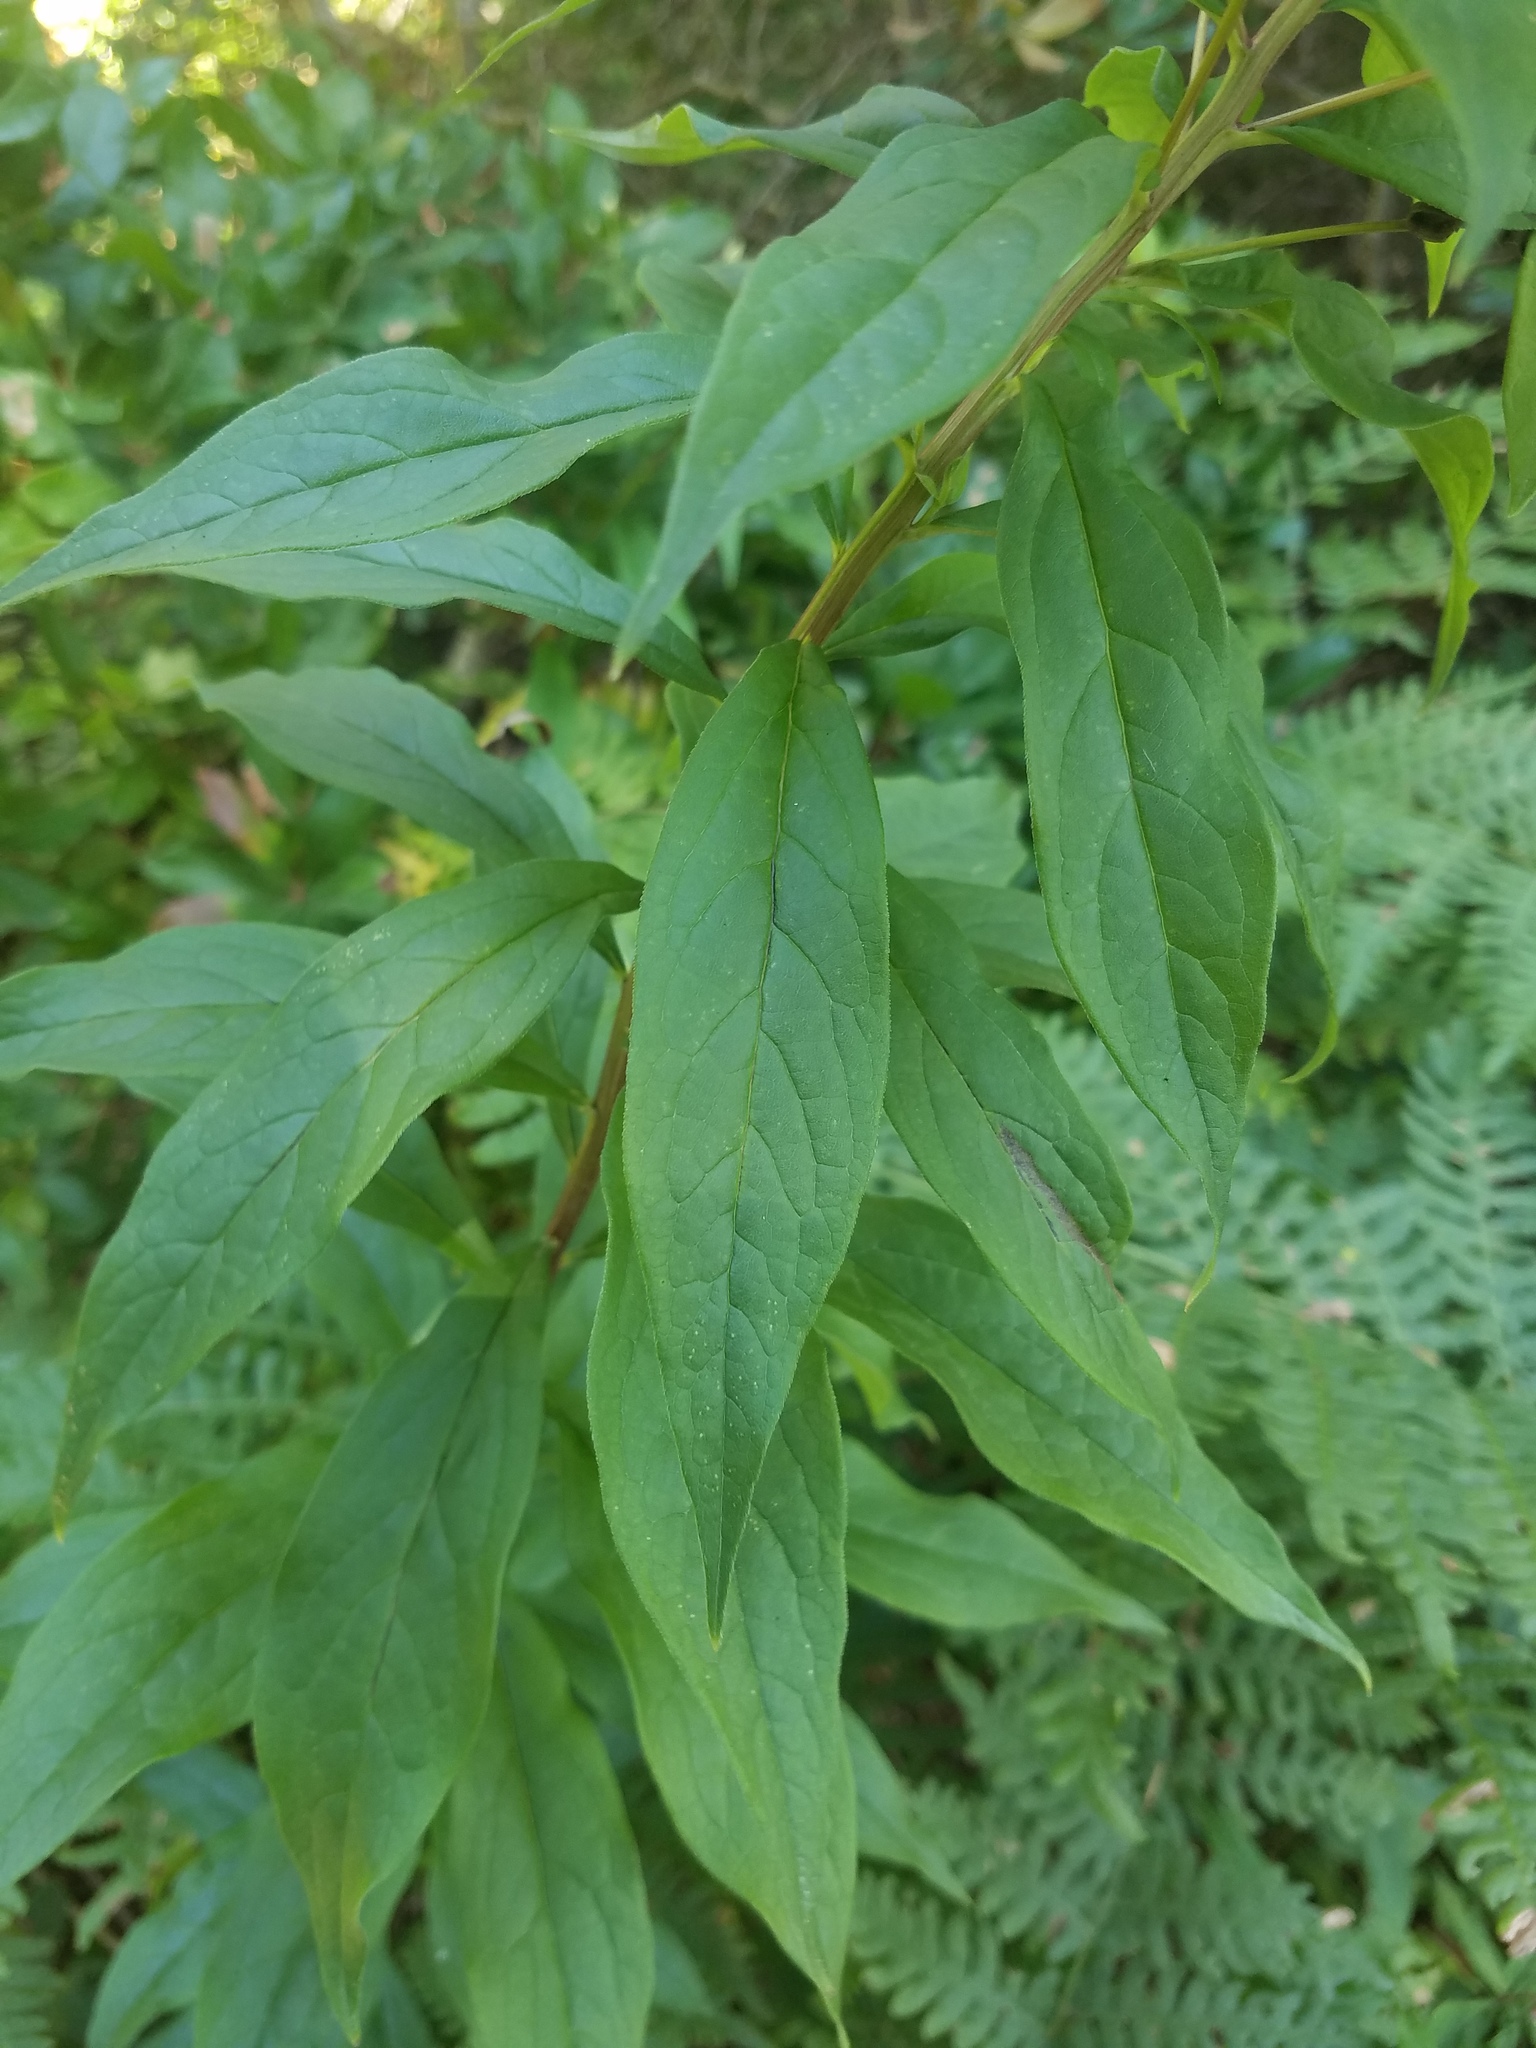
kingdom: Plantae
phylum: Tracheophyta
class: Magnoliopsida
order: Asterales
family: Asteraceae
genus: Doellingeria
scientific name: Doellingeria umbellata
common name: Flat-top white aster
